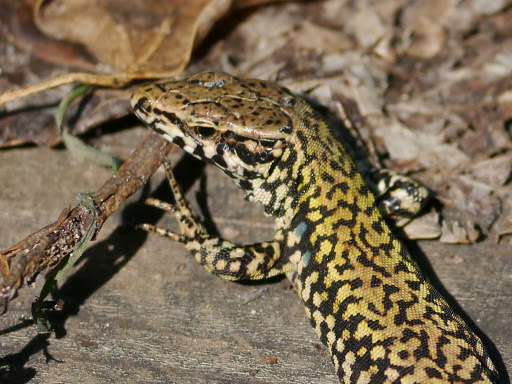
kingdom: Animalia
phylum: Chordata
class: Squamata
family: Lacertidae
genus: Podarcis
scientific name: Podarcis muralis
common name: Common wall lizard
